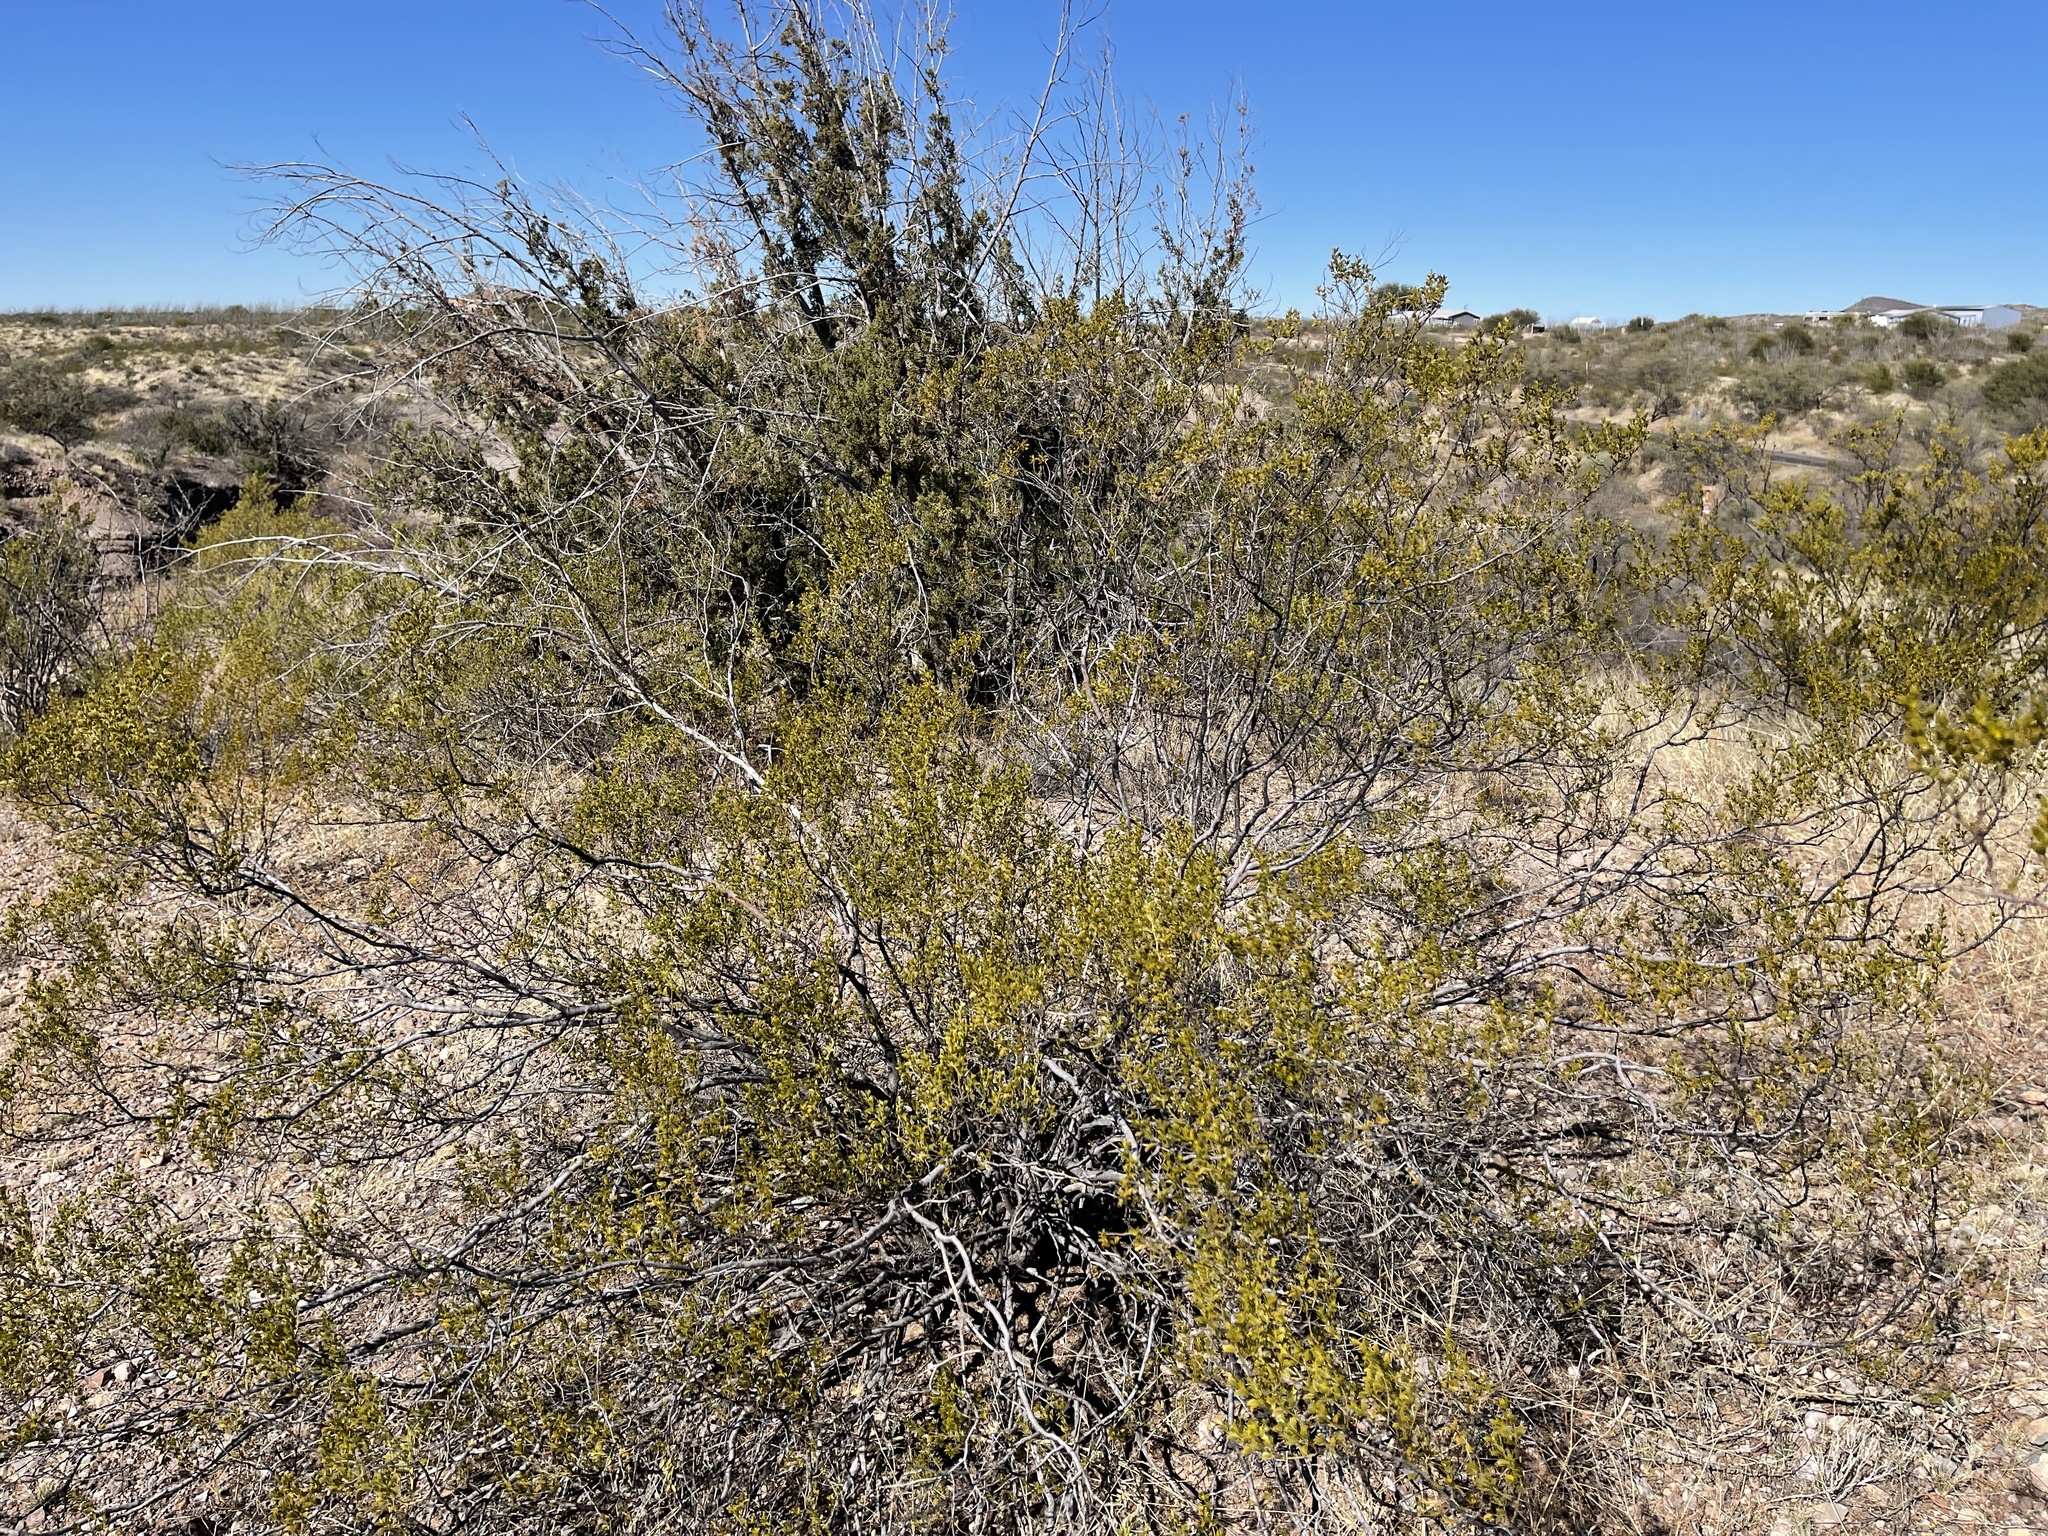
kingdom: Plantae
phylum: Tracheophyta
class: Magnoliopsida
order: Zygophyllales
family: Zygophyllaceae
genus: Larrea
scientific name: Larrea tridentata
